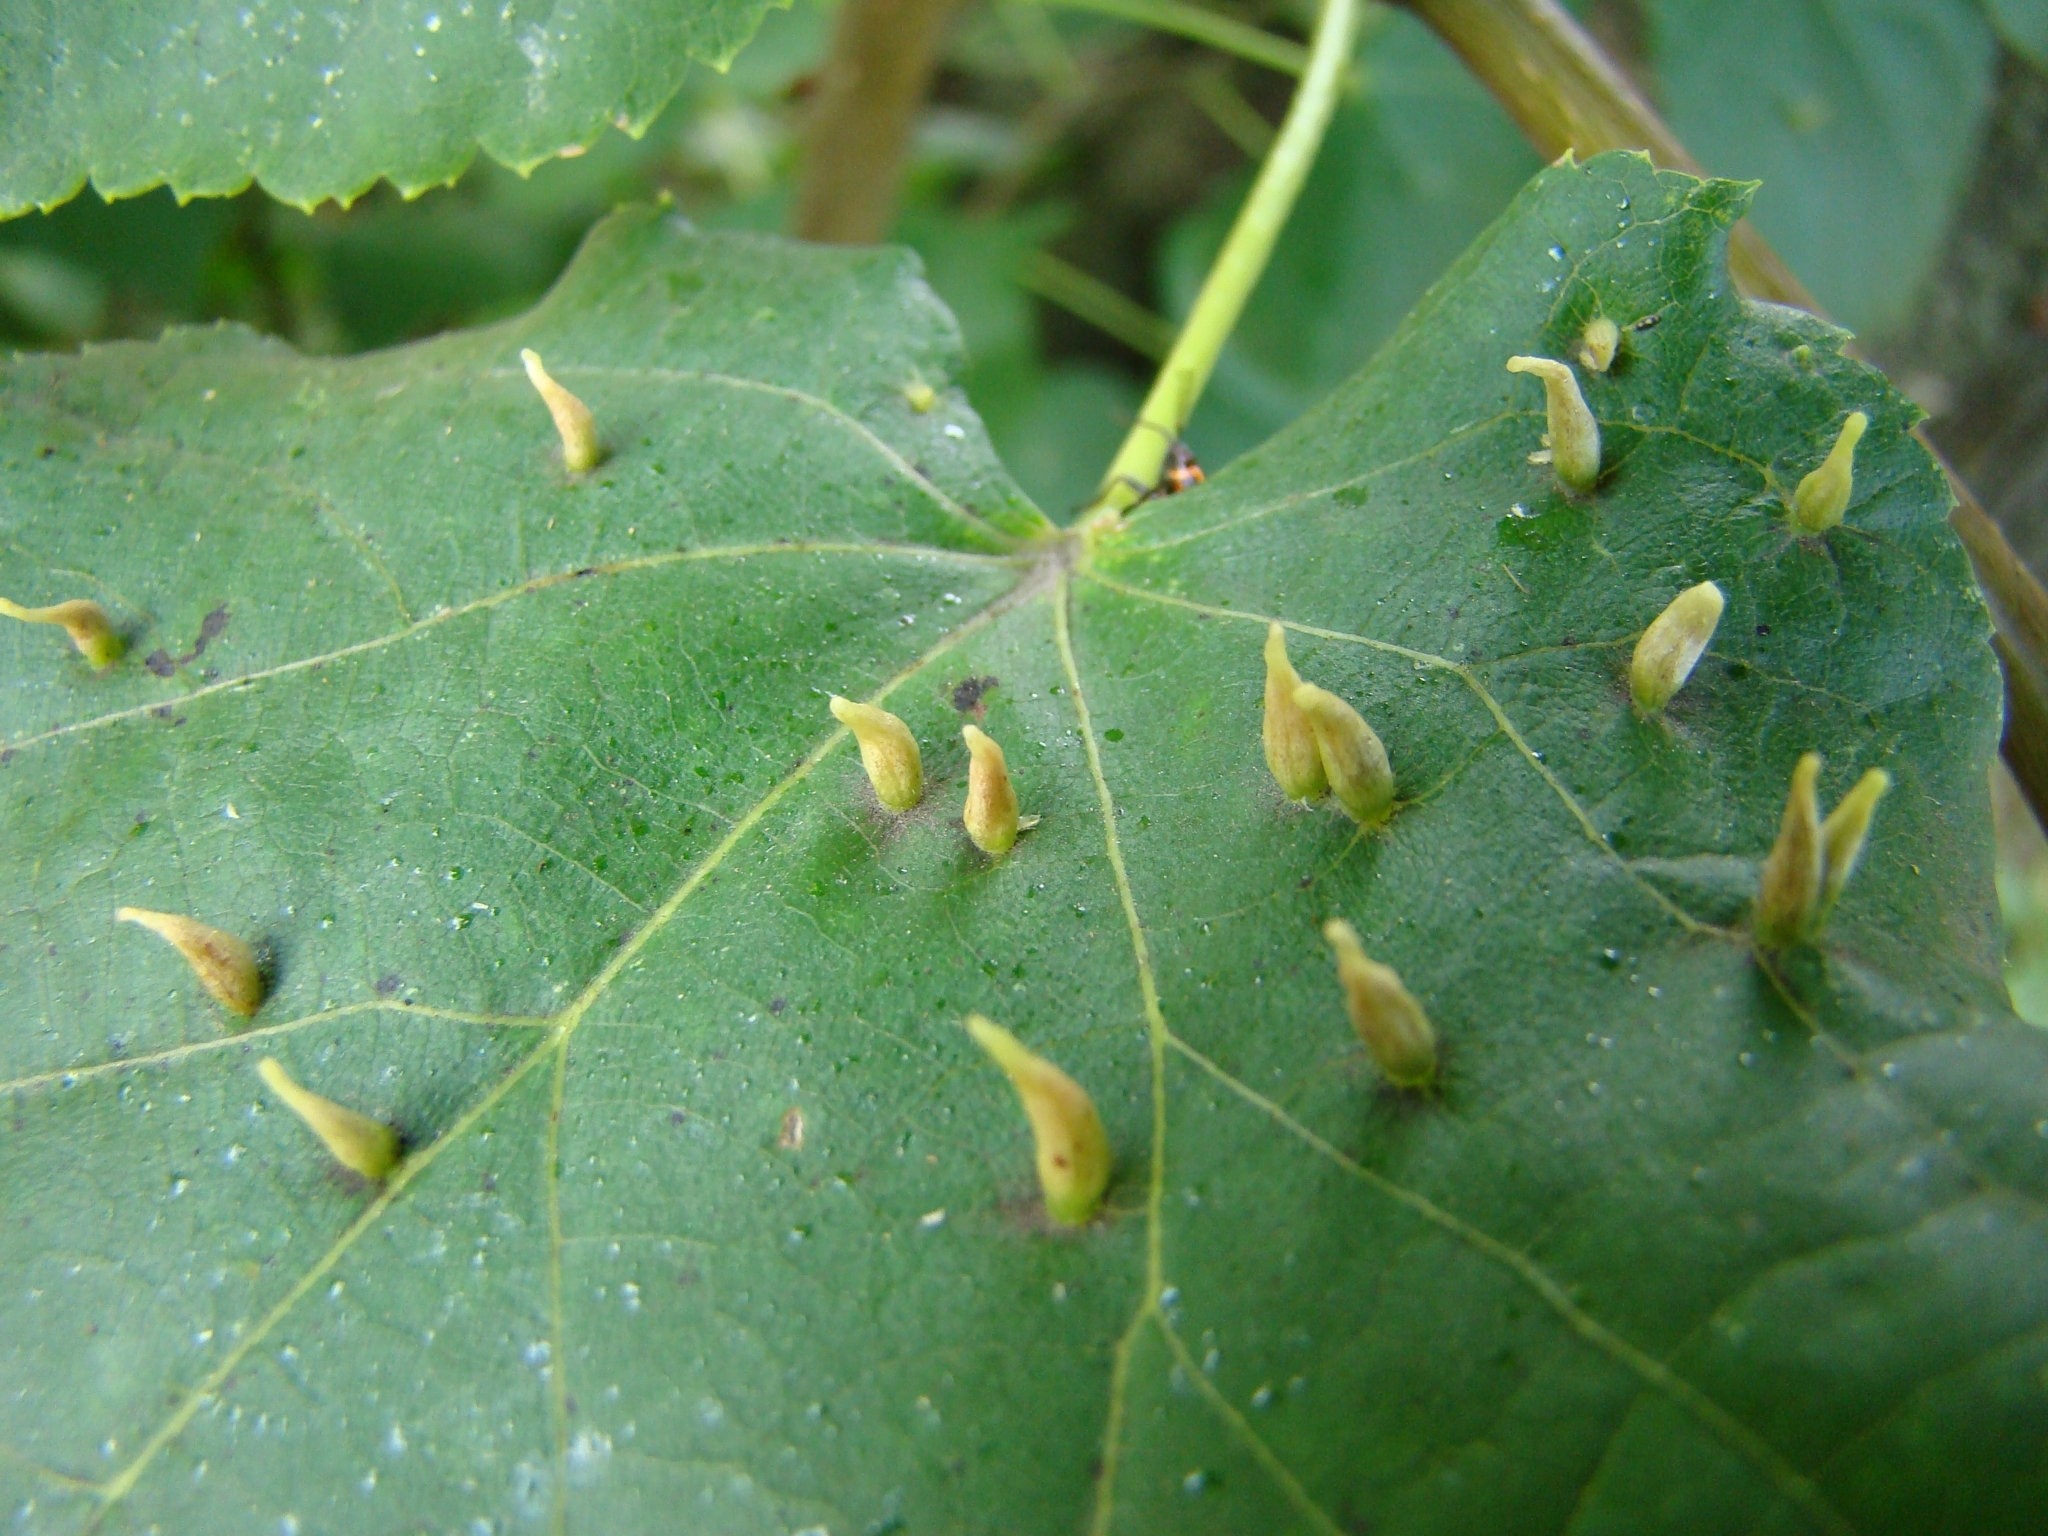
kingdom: Animalia
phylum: Arthropoda
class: Arachnida
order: Trombidiformes
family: Eriophyidae
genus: Eriophyes
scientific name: Eriophyes tiliae
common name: Red nail gall mite
